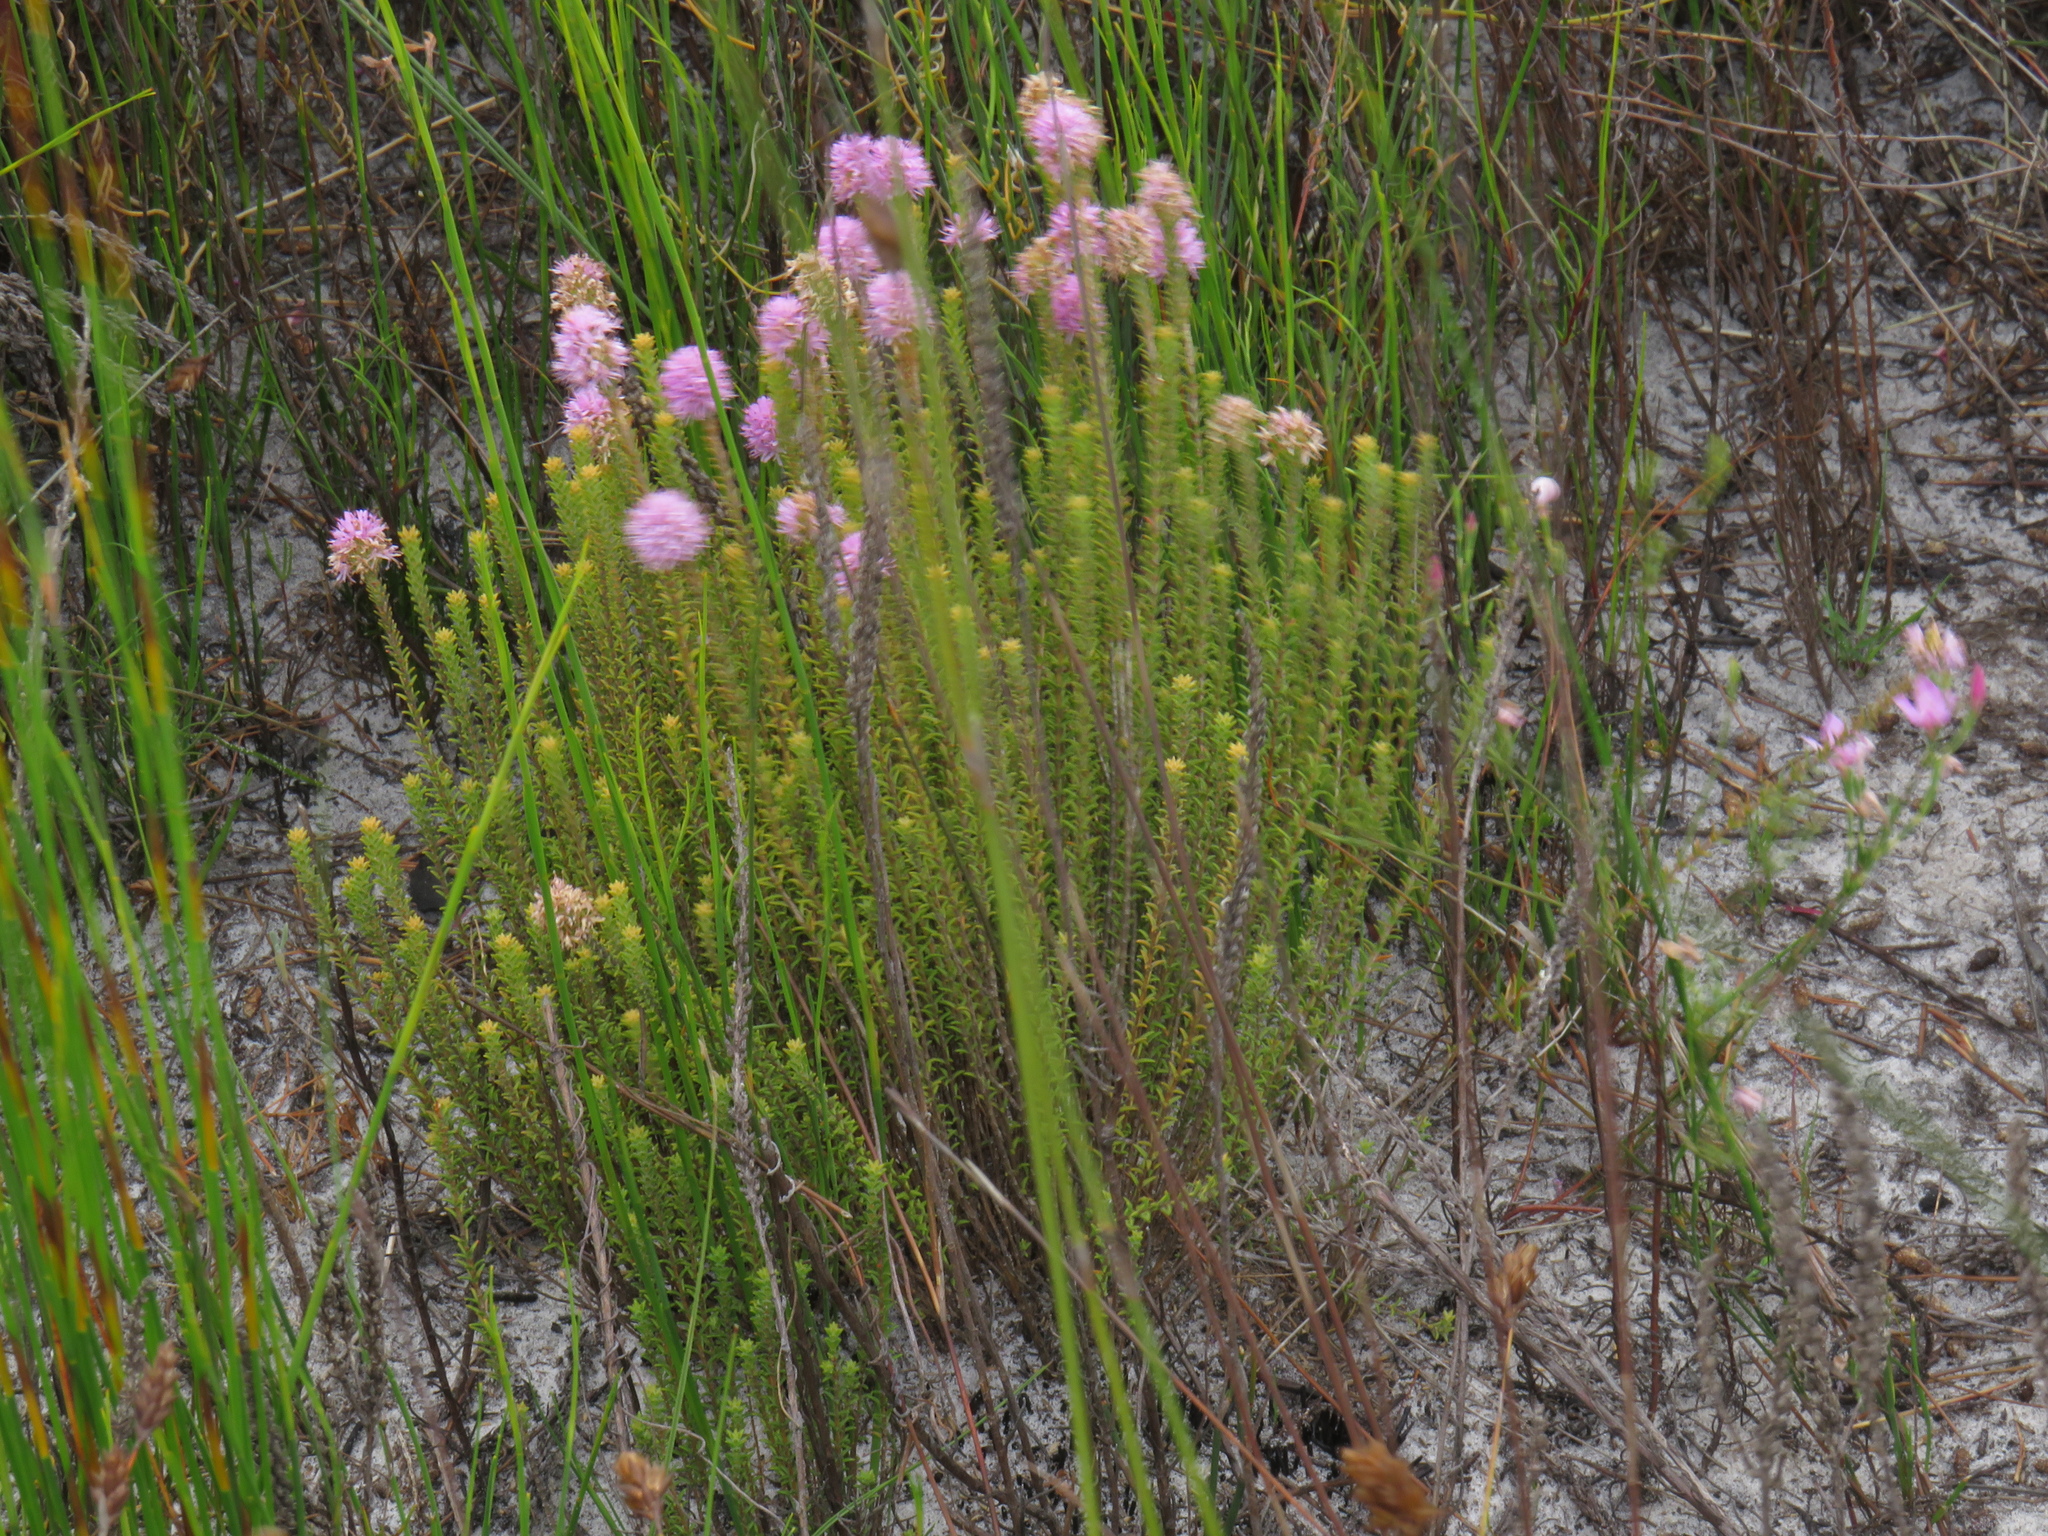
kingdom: Plantae
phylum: Tracheophyta
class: Magnoliopsida
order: Lamiales
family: Stilbaceae
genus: Stilbe
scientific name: Stilbe ericoides
